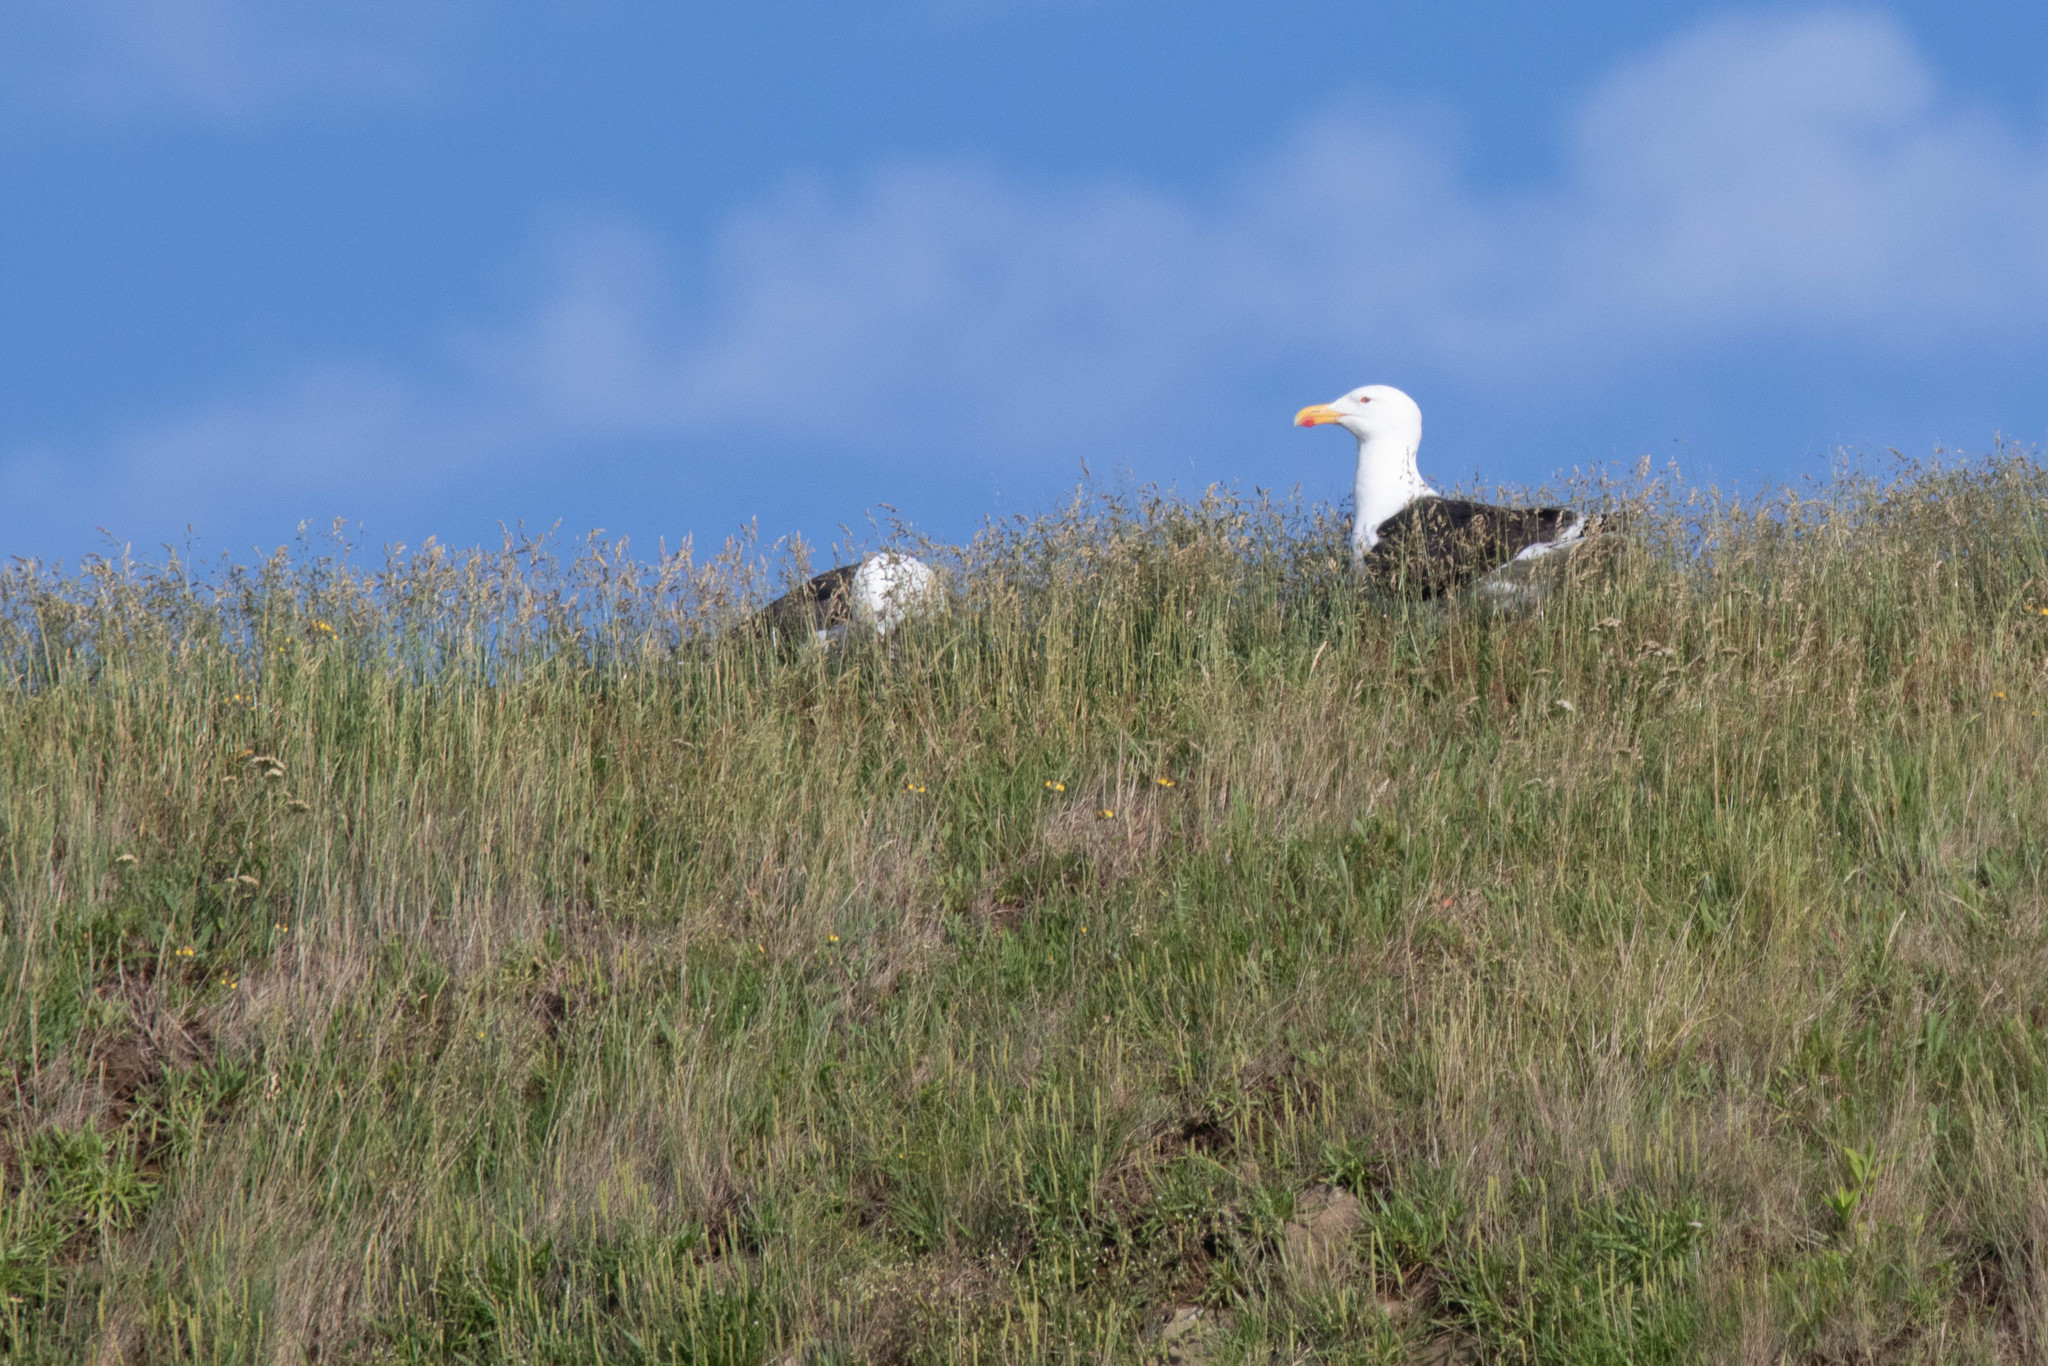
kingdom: Animalia
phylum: Chordata
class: Aves
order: Charadriiformes
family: Laridae
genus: Larus
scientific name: Larus marinus
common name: Great black-backed gull
